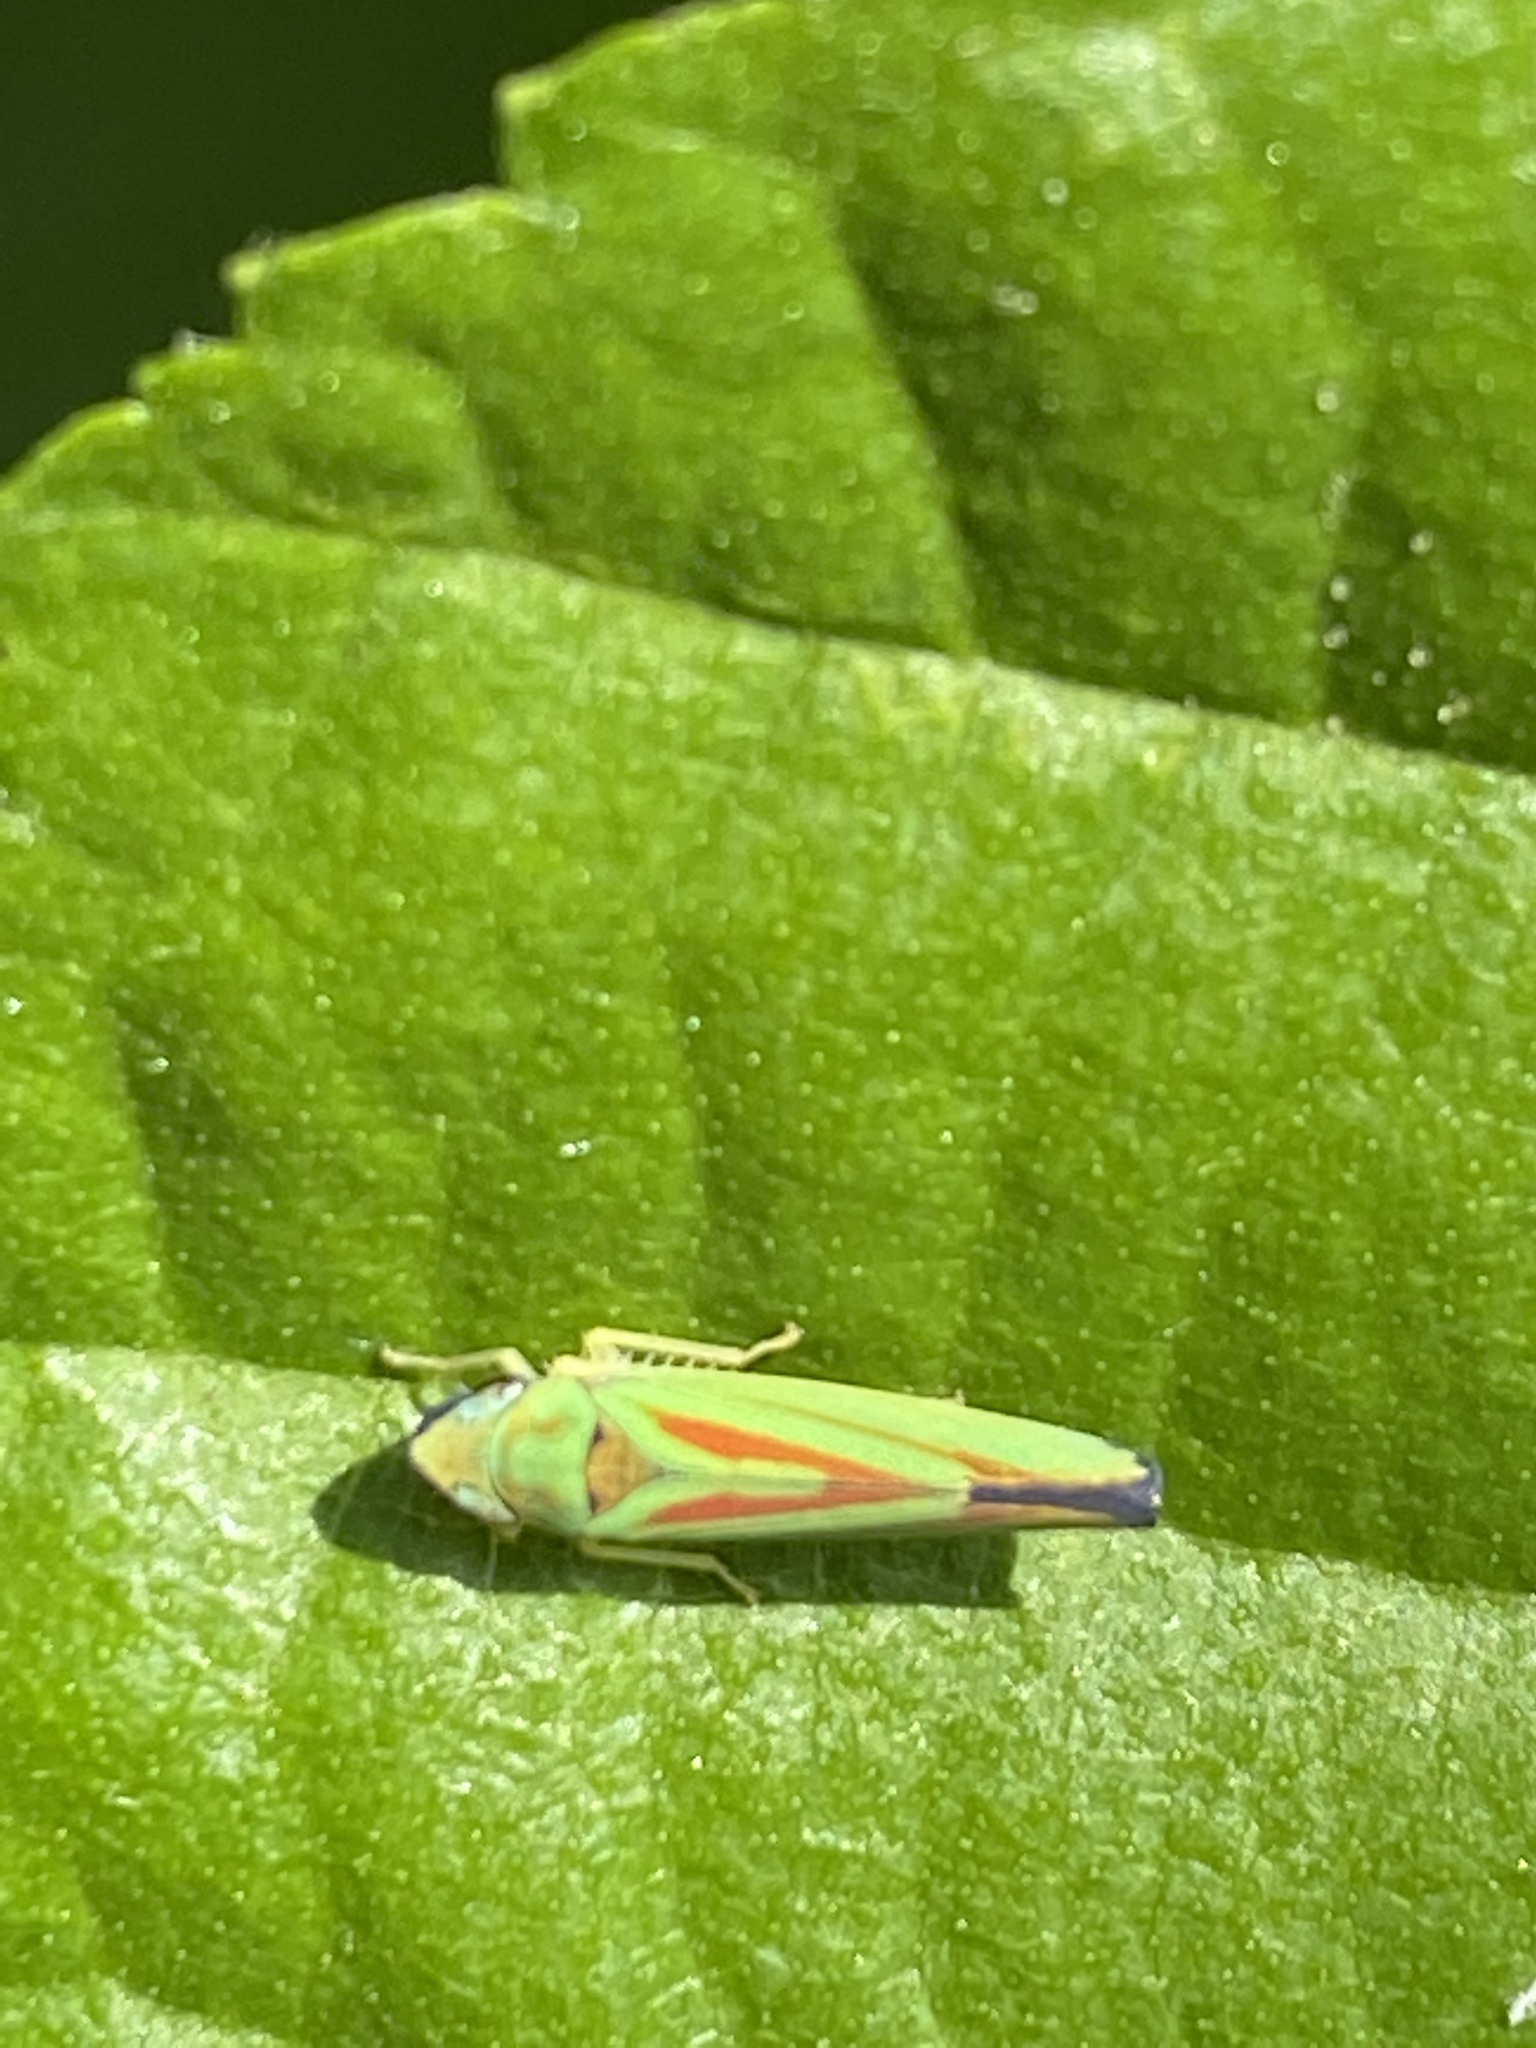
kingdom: Animalia
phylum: Arthropoda
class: Insecta
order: Hemiptera
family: Cicadellidae
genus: Graphocephala
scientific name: Graphocephala fennahi
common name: Rhododendron leafhopper
